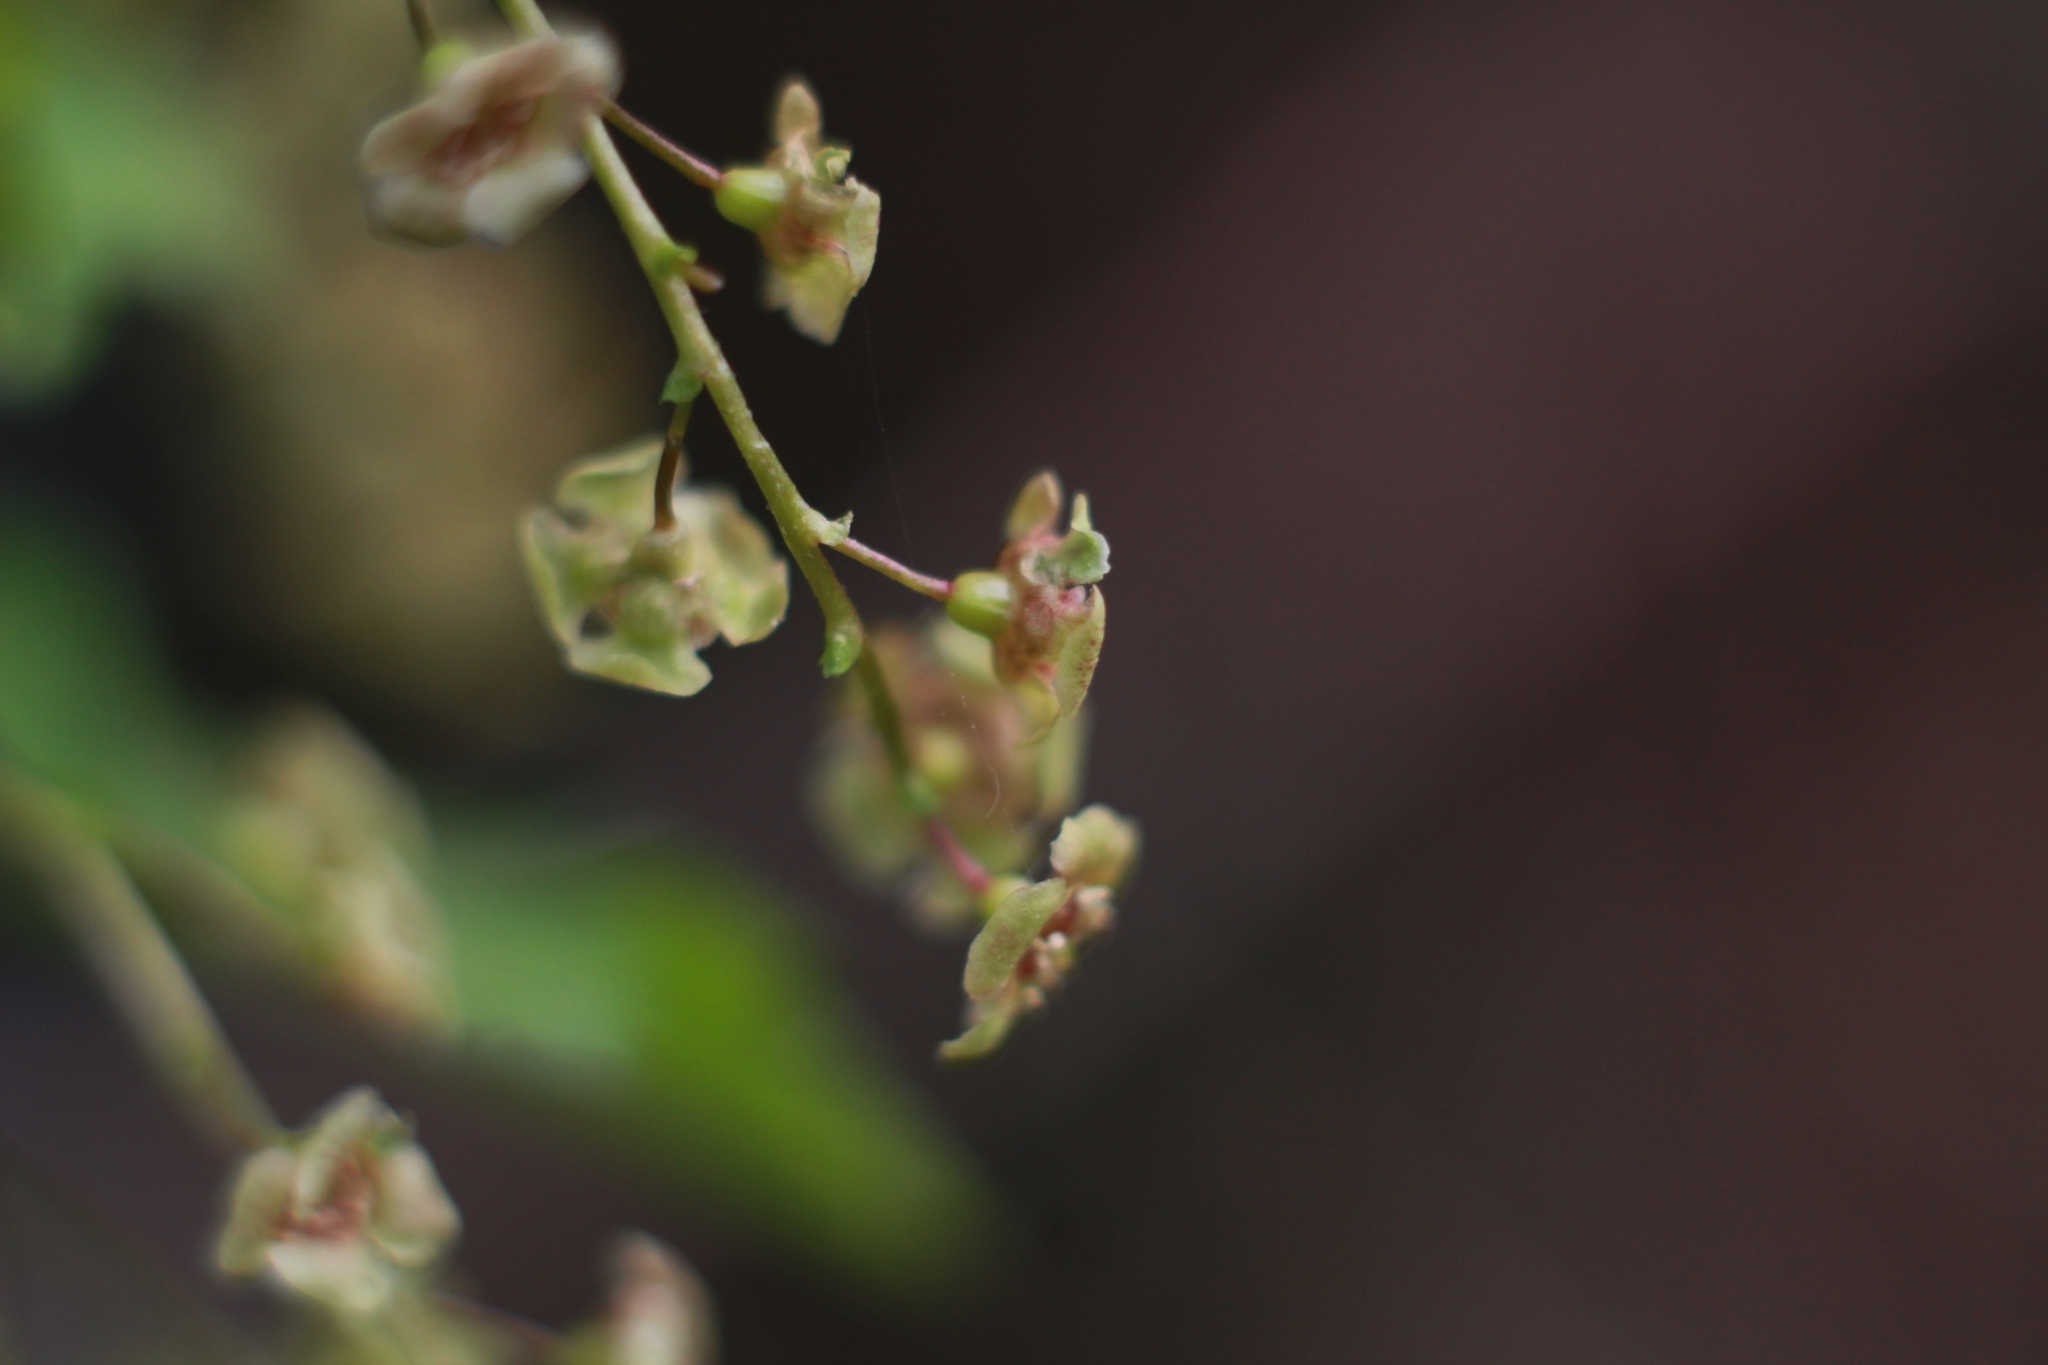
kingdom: Plantae
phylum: Tracheophyta
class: Magnoliopsida
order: Saxifragales
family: Grossulariaceae
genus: Ribes
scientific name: Ribes rubrum
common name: Red currant
